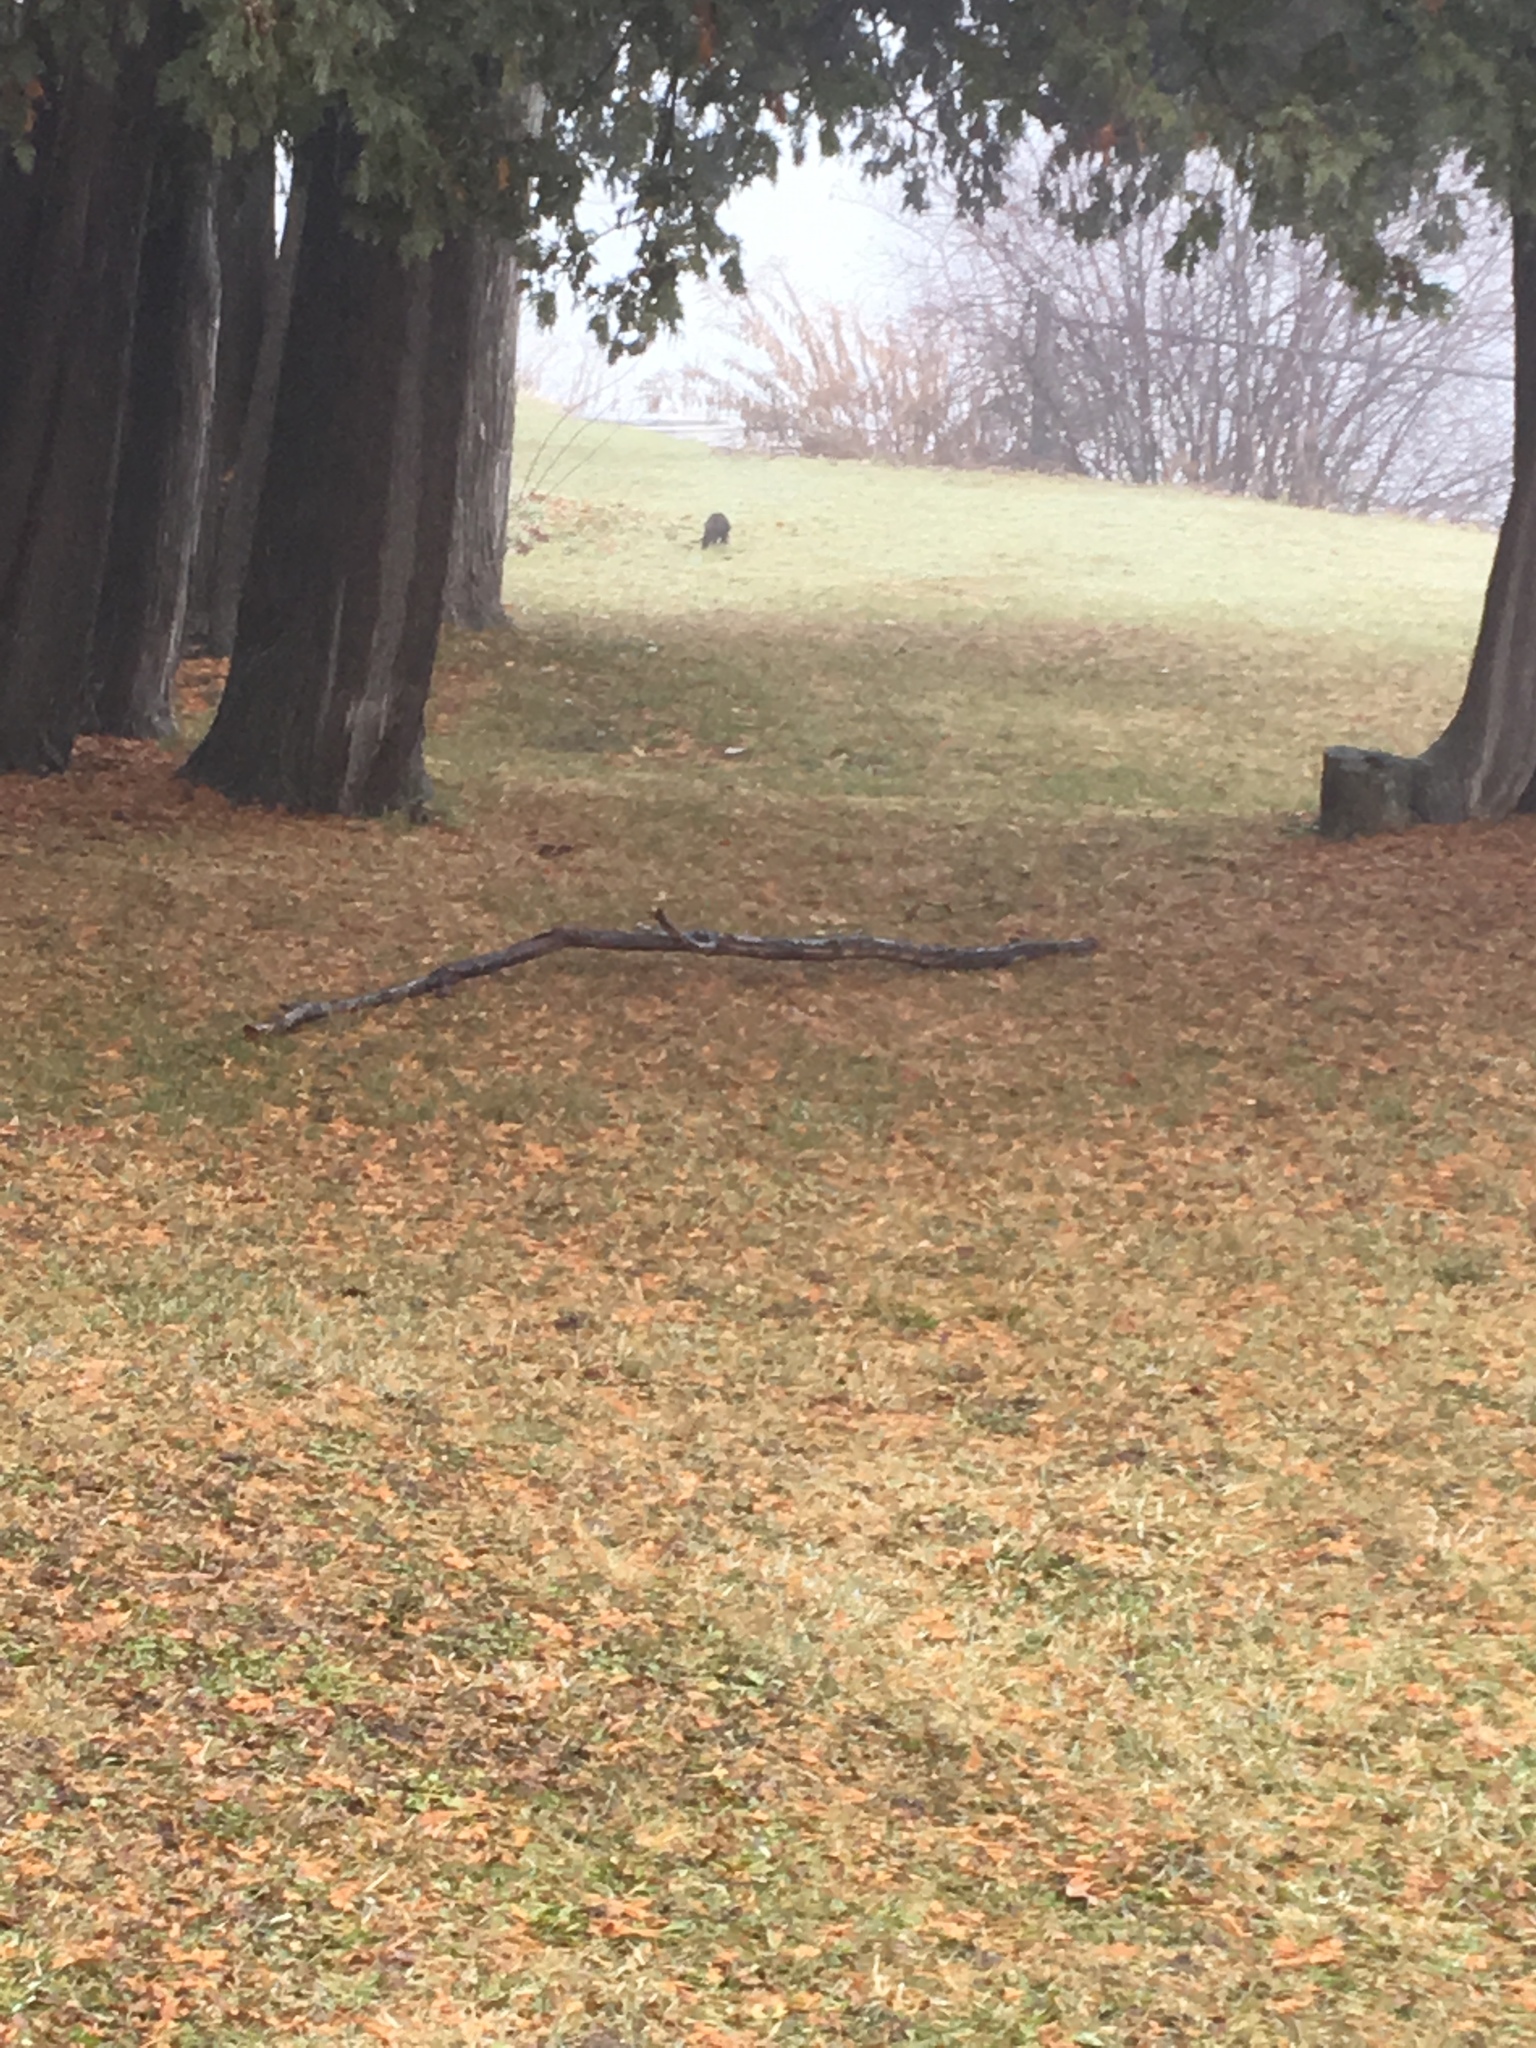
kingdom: Animalia
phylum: Chordata
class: Mammalia
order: Rodentia
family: Sciuridae
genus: Sciurus
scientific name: Sciurus carolinensis
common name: Eastern gray squirrel
